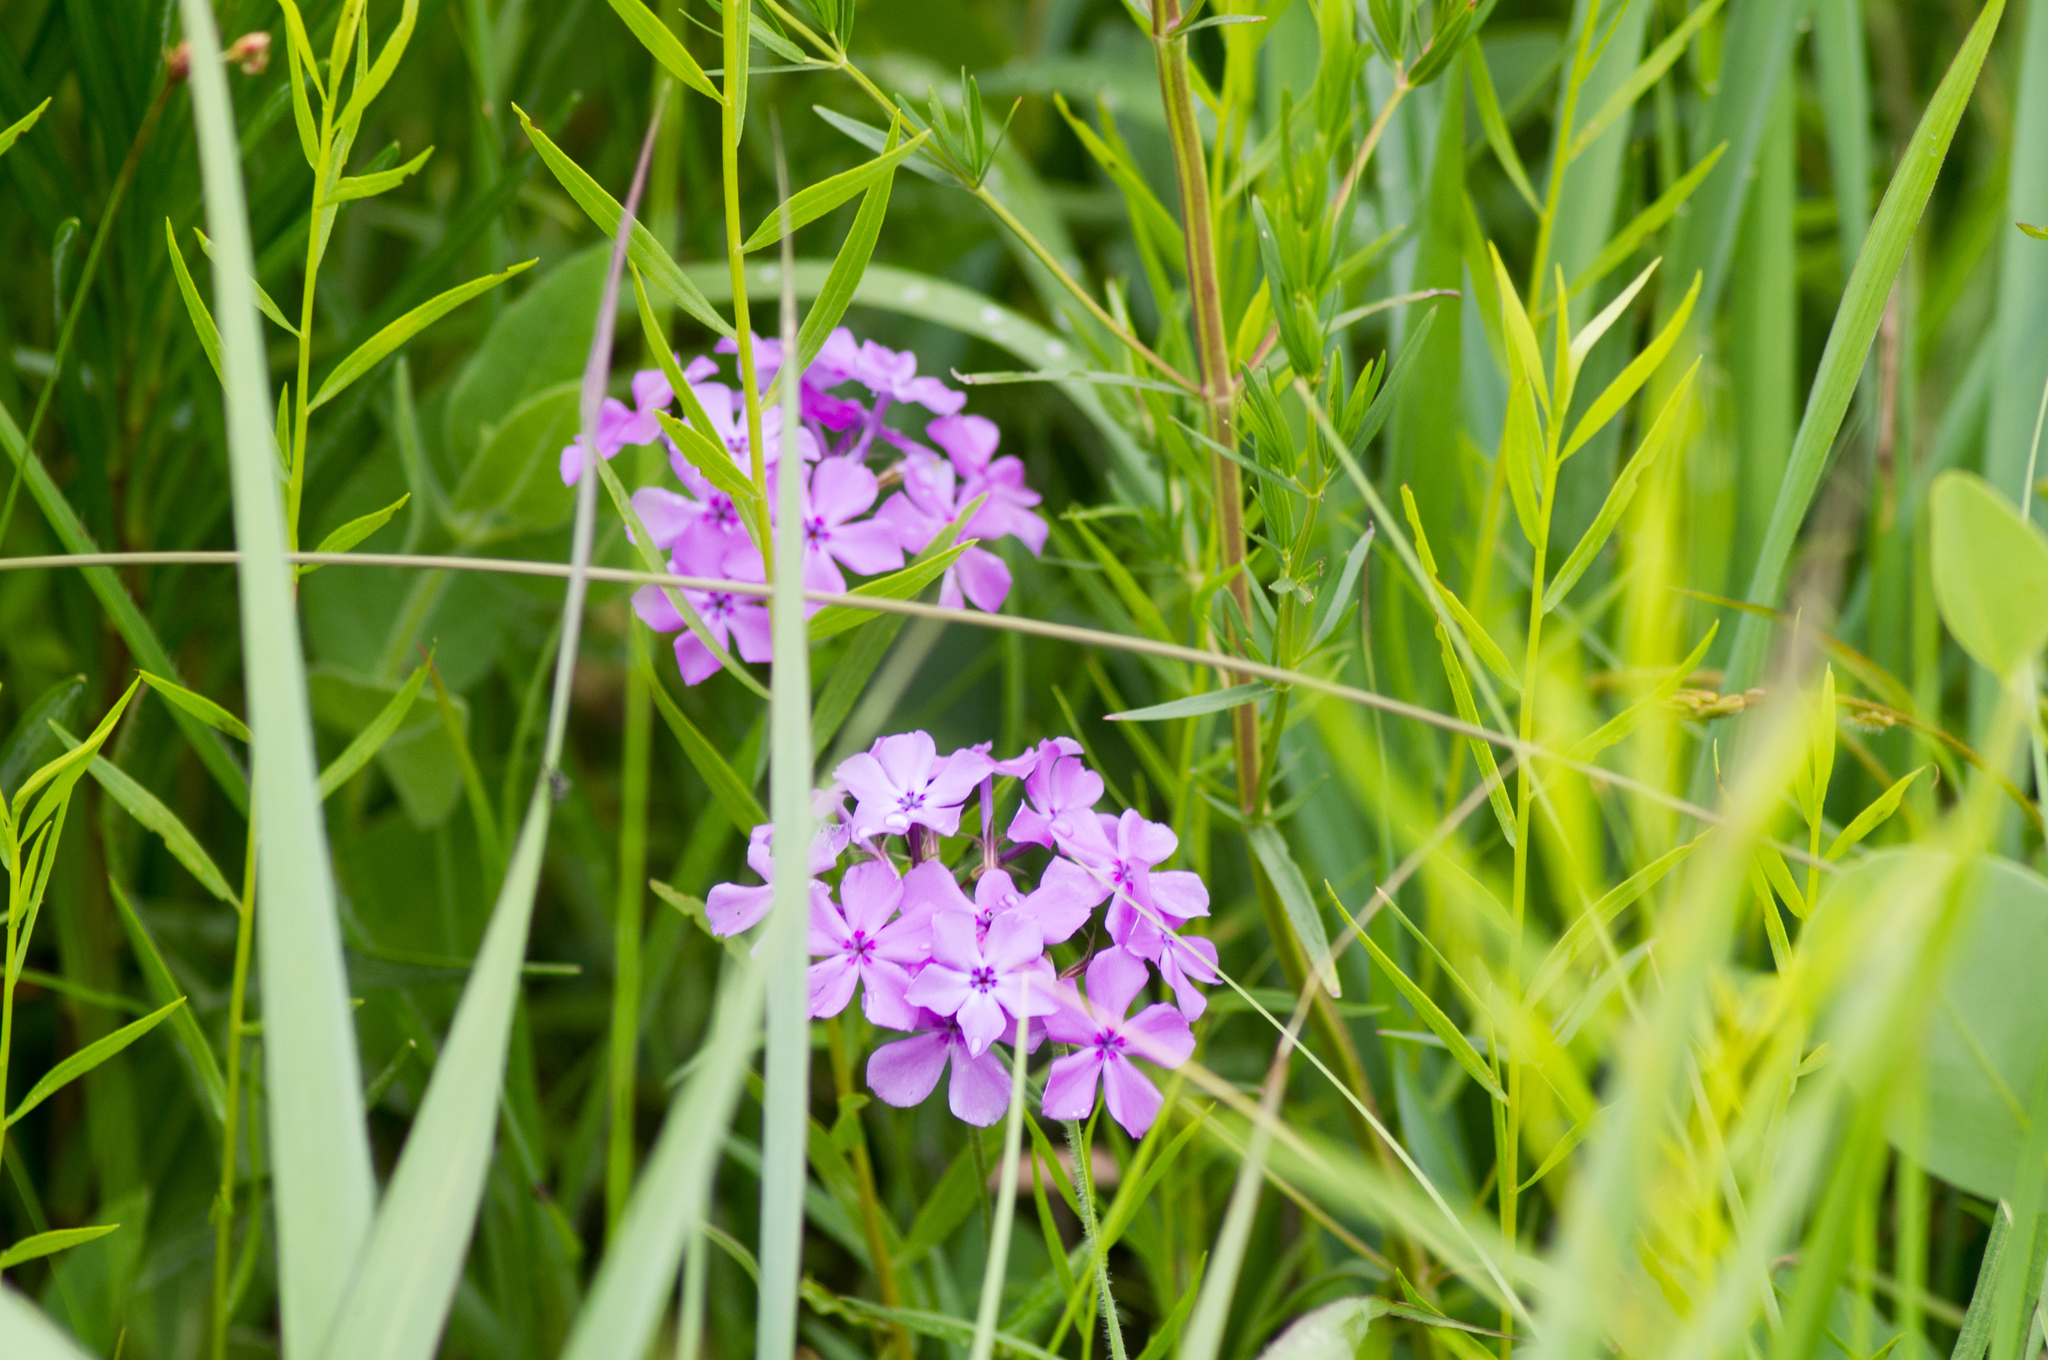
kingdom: Plantae
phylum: Tracheophyta
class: Magnoliopsida
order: Ericales
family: Polemoniaceae
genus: Phlox
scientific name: Phlox pilosa
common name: Prairie phlox
